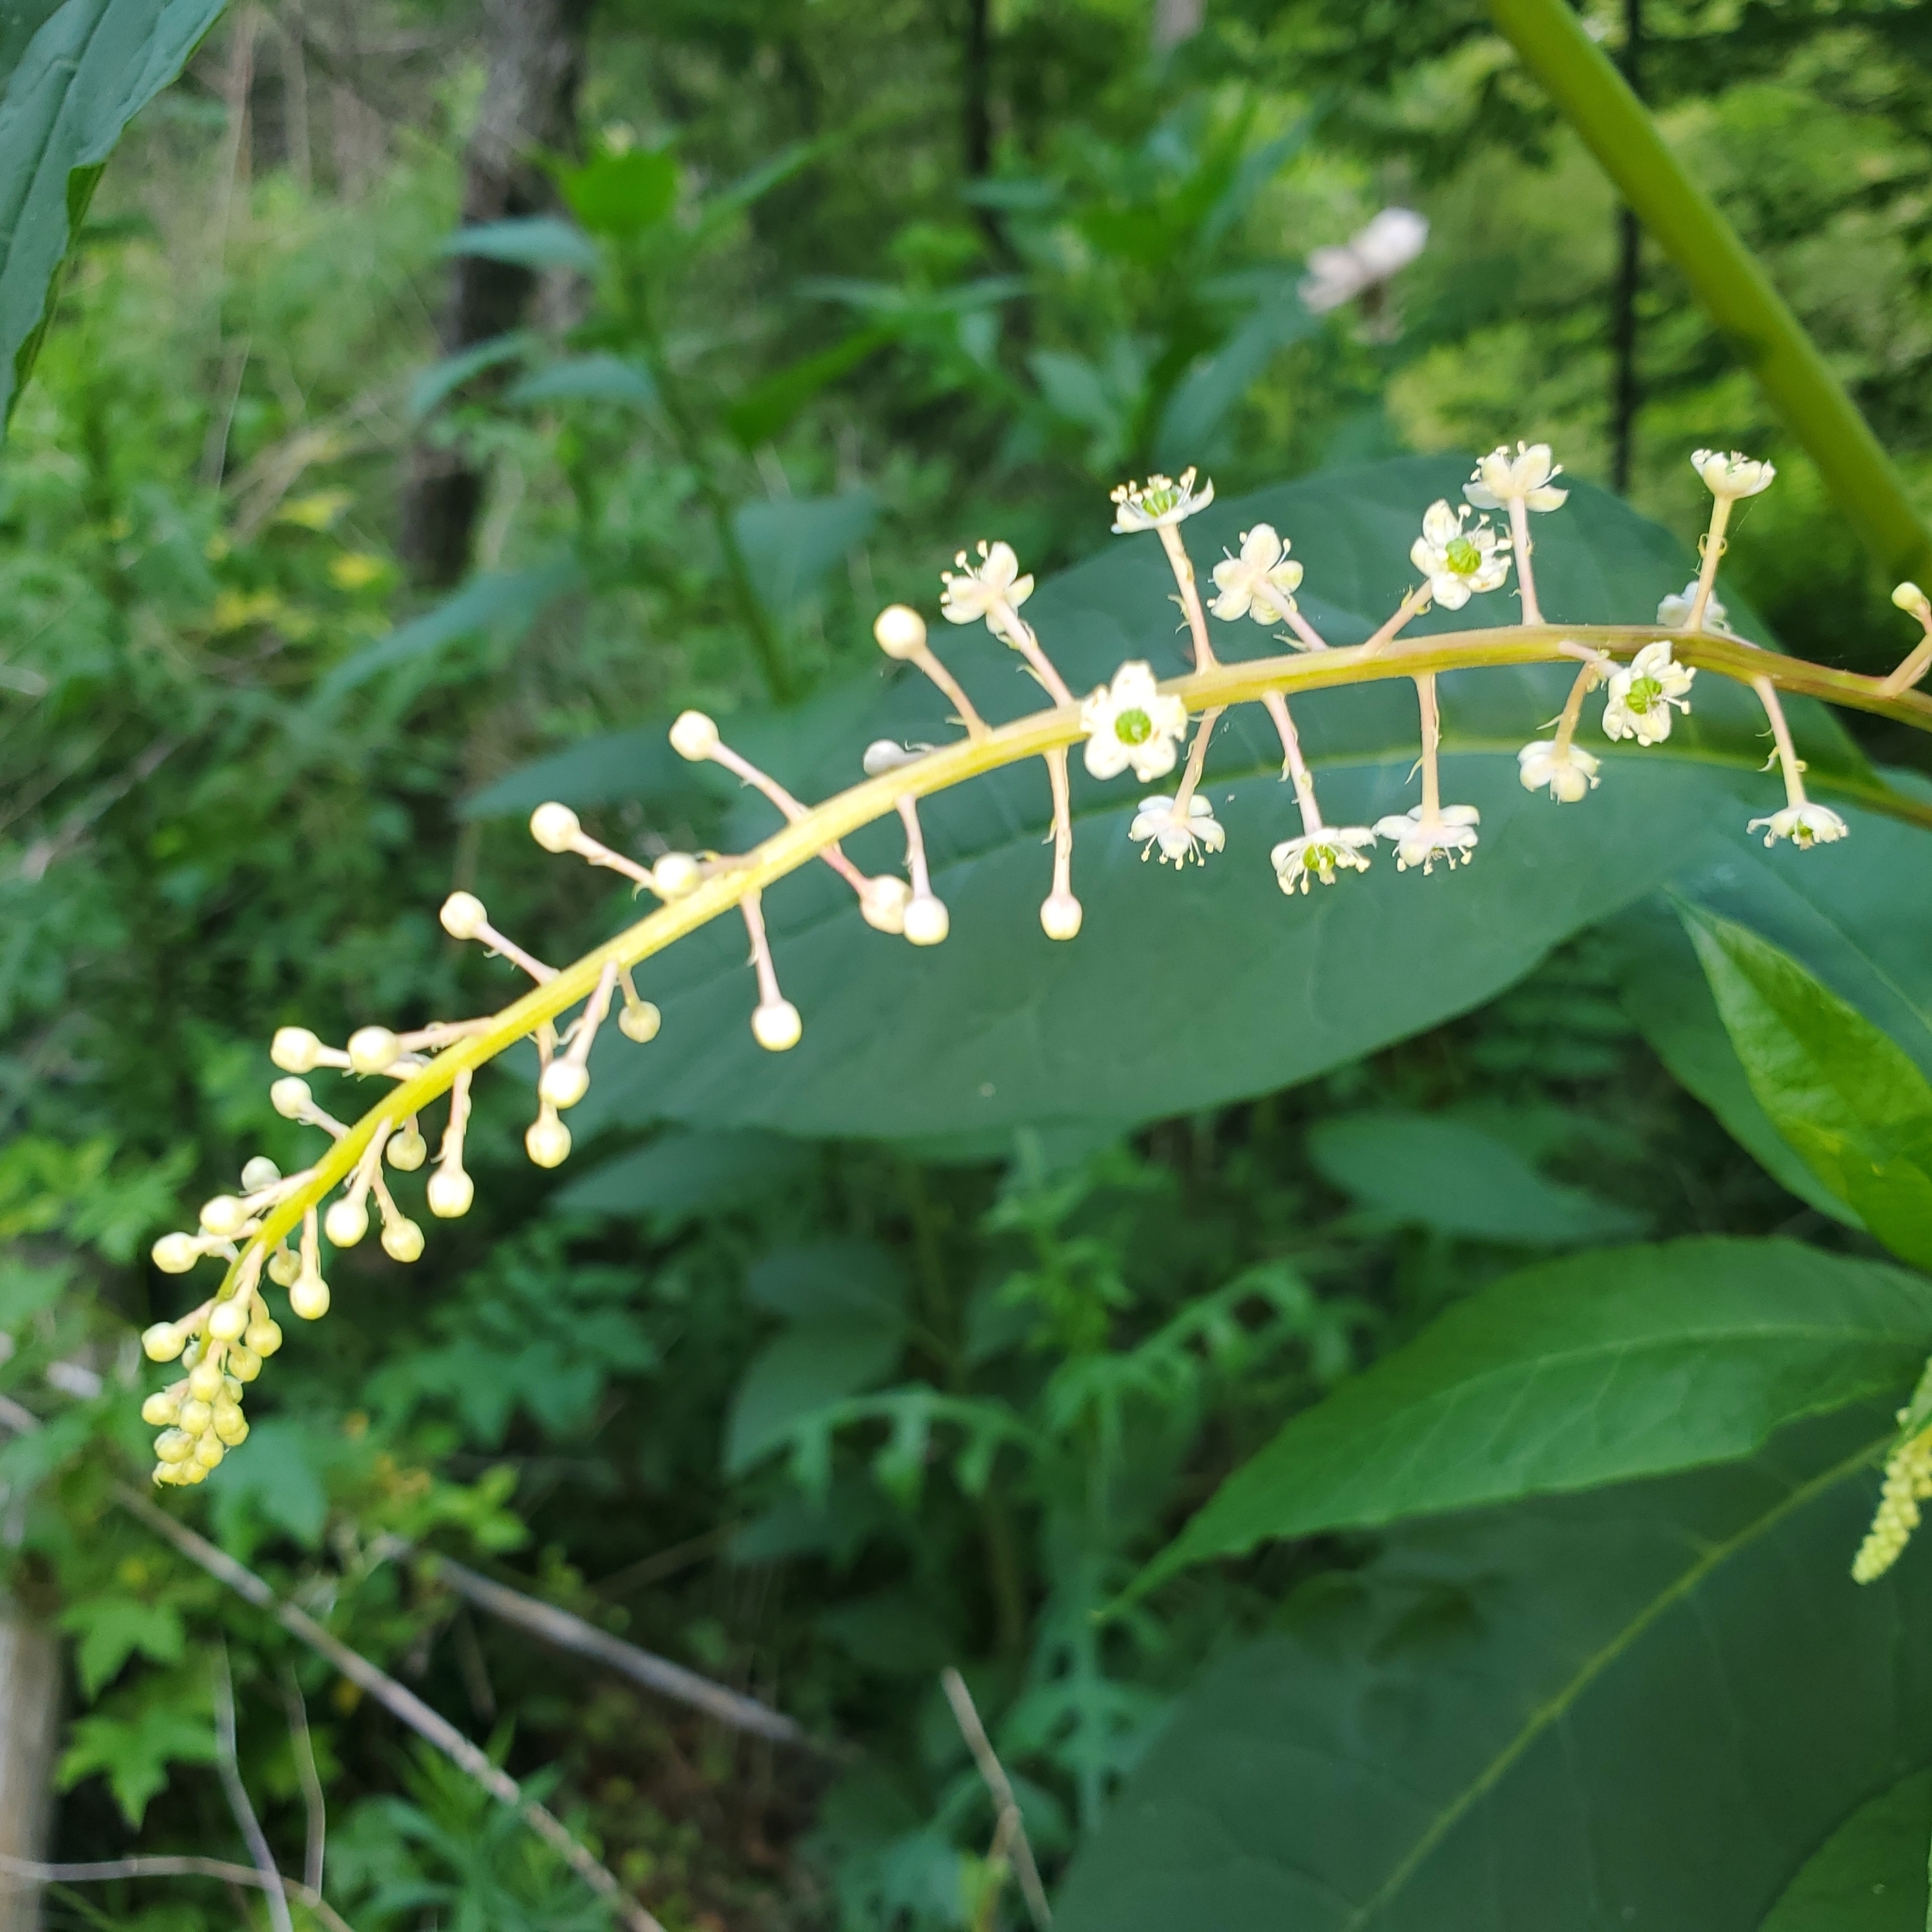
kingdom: Plantae
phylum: Tracheophyta
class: Magnoliopsida
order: Caryophyllales
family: Phytolaccaceae
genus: Phytolacca
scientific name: Phytolacca americana
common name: American pokeweed
